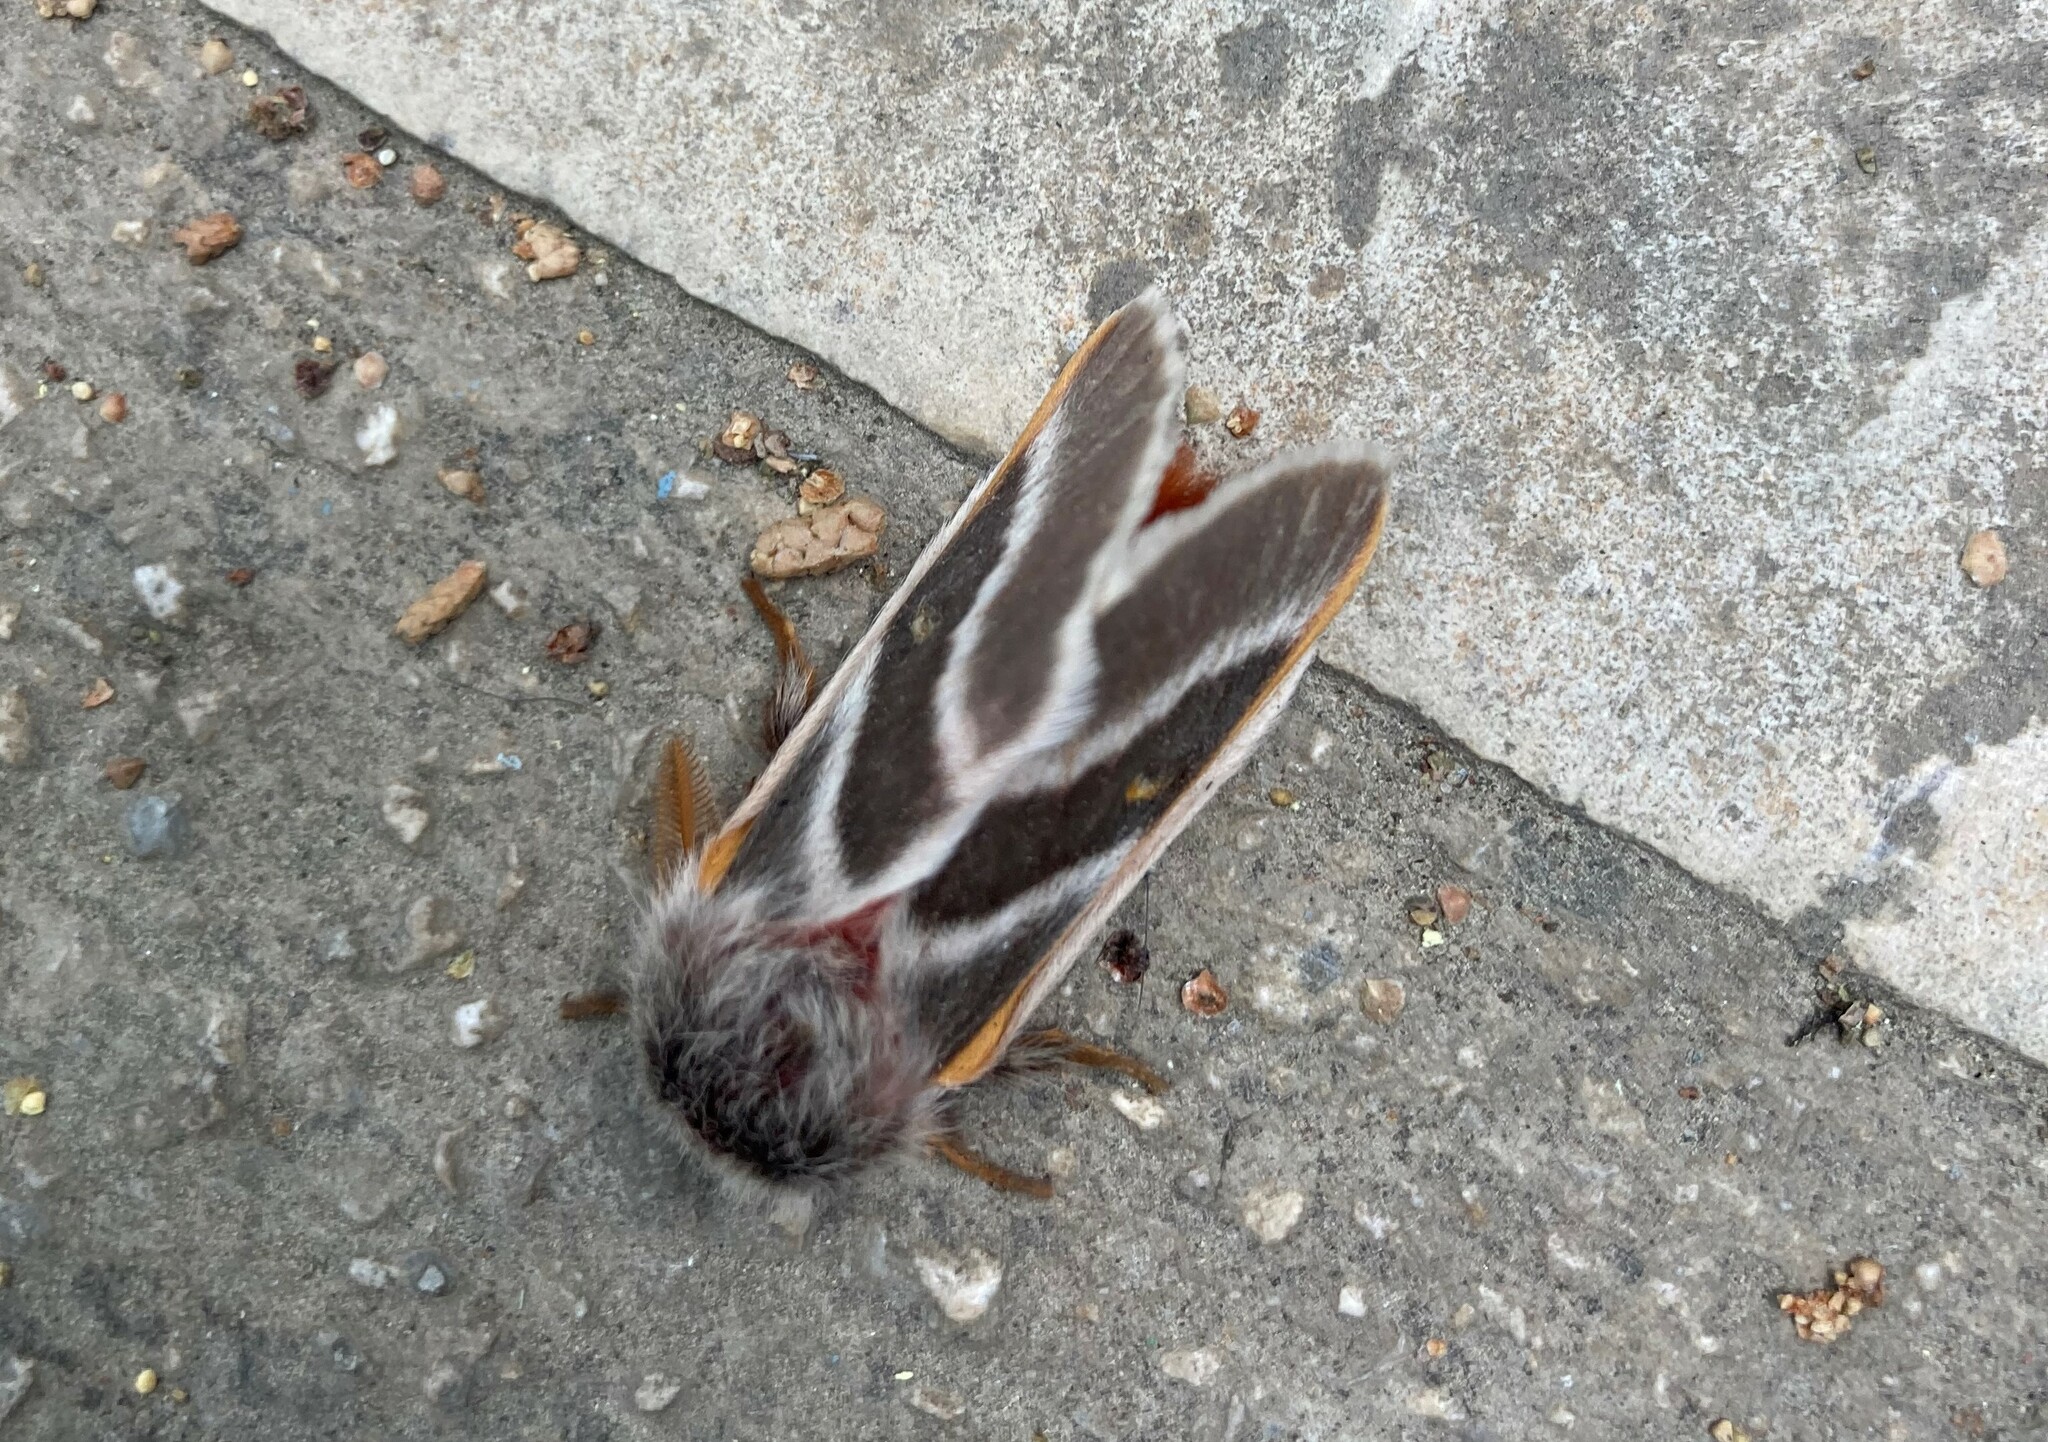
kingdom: Animalia
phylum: Arthropoda
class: Insecta
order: Lepidoptera
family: Saturniidae
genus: Hemileuca
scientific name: Hemileuca lex
